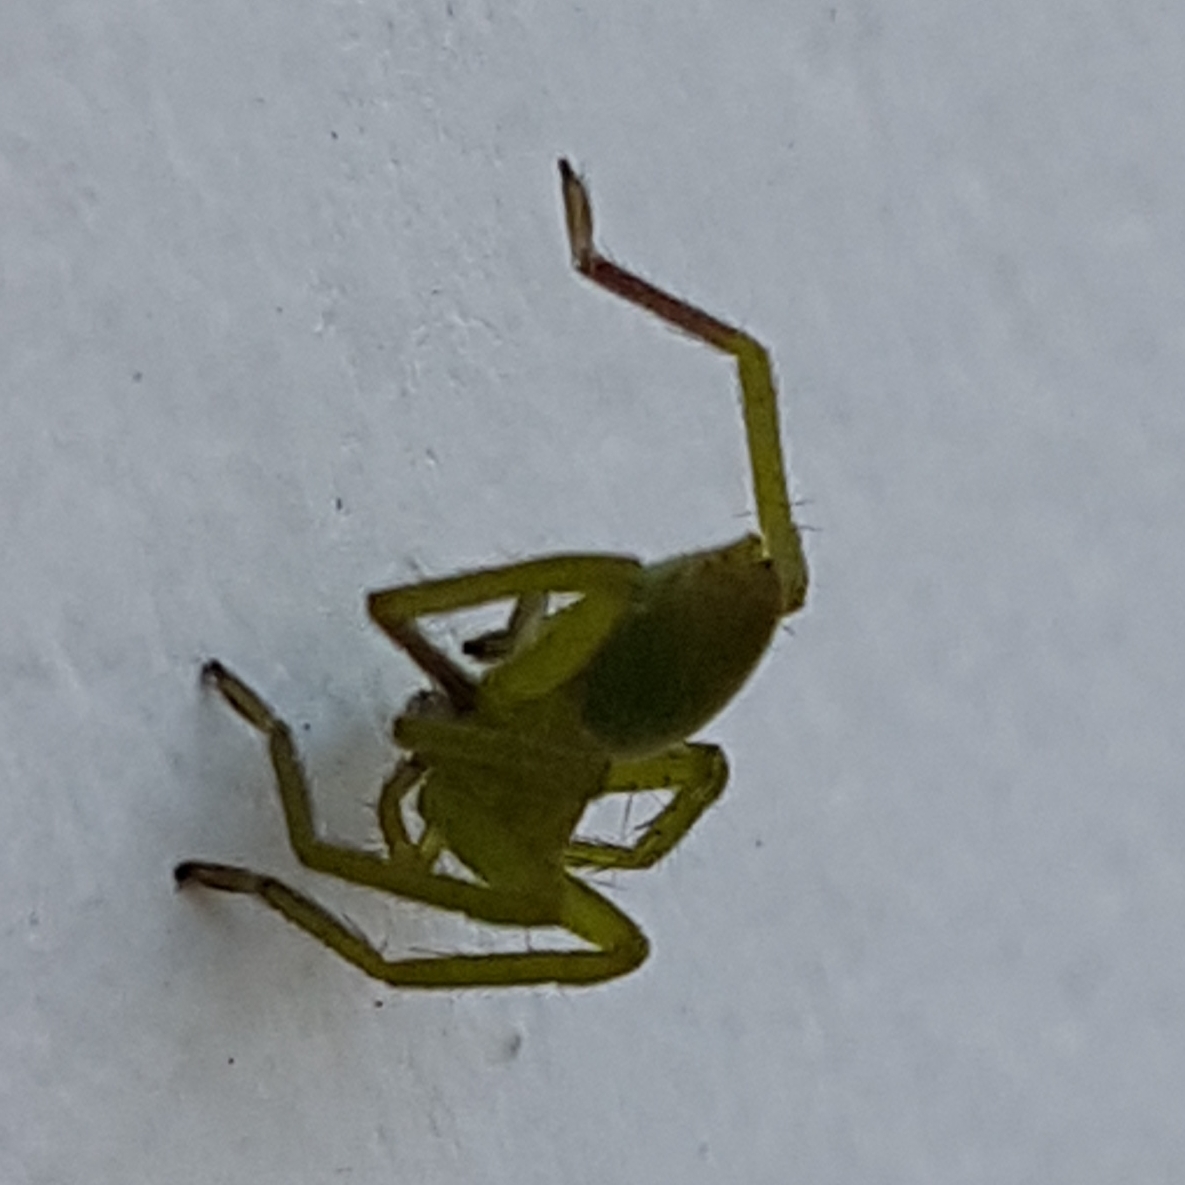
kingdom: Animalia
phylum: Arthropoda
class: Arachnida
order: Araneae
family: Sparassidae
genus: Micrommata
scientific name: Micrommata ligurina
